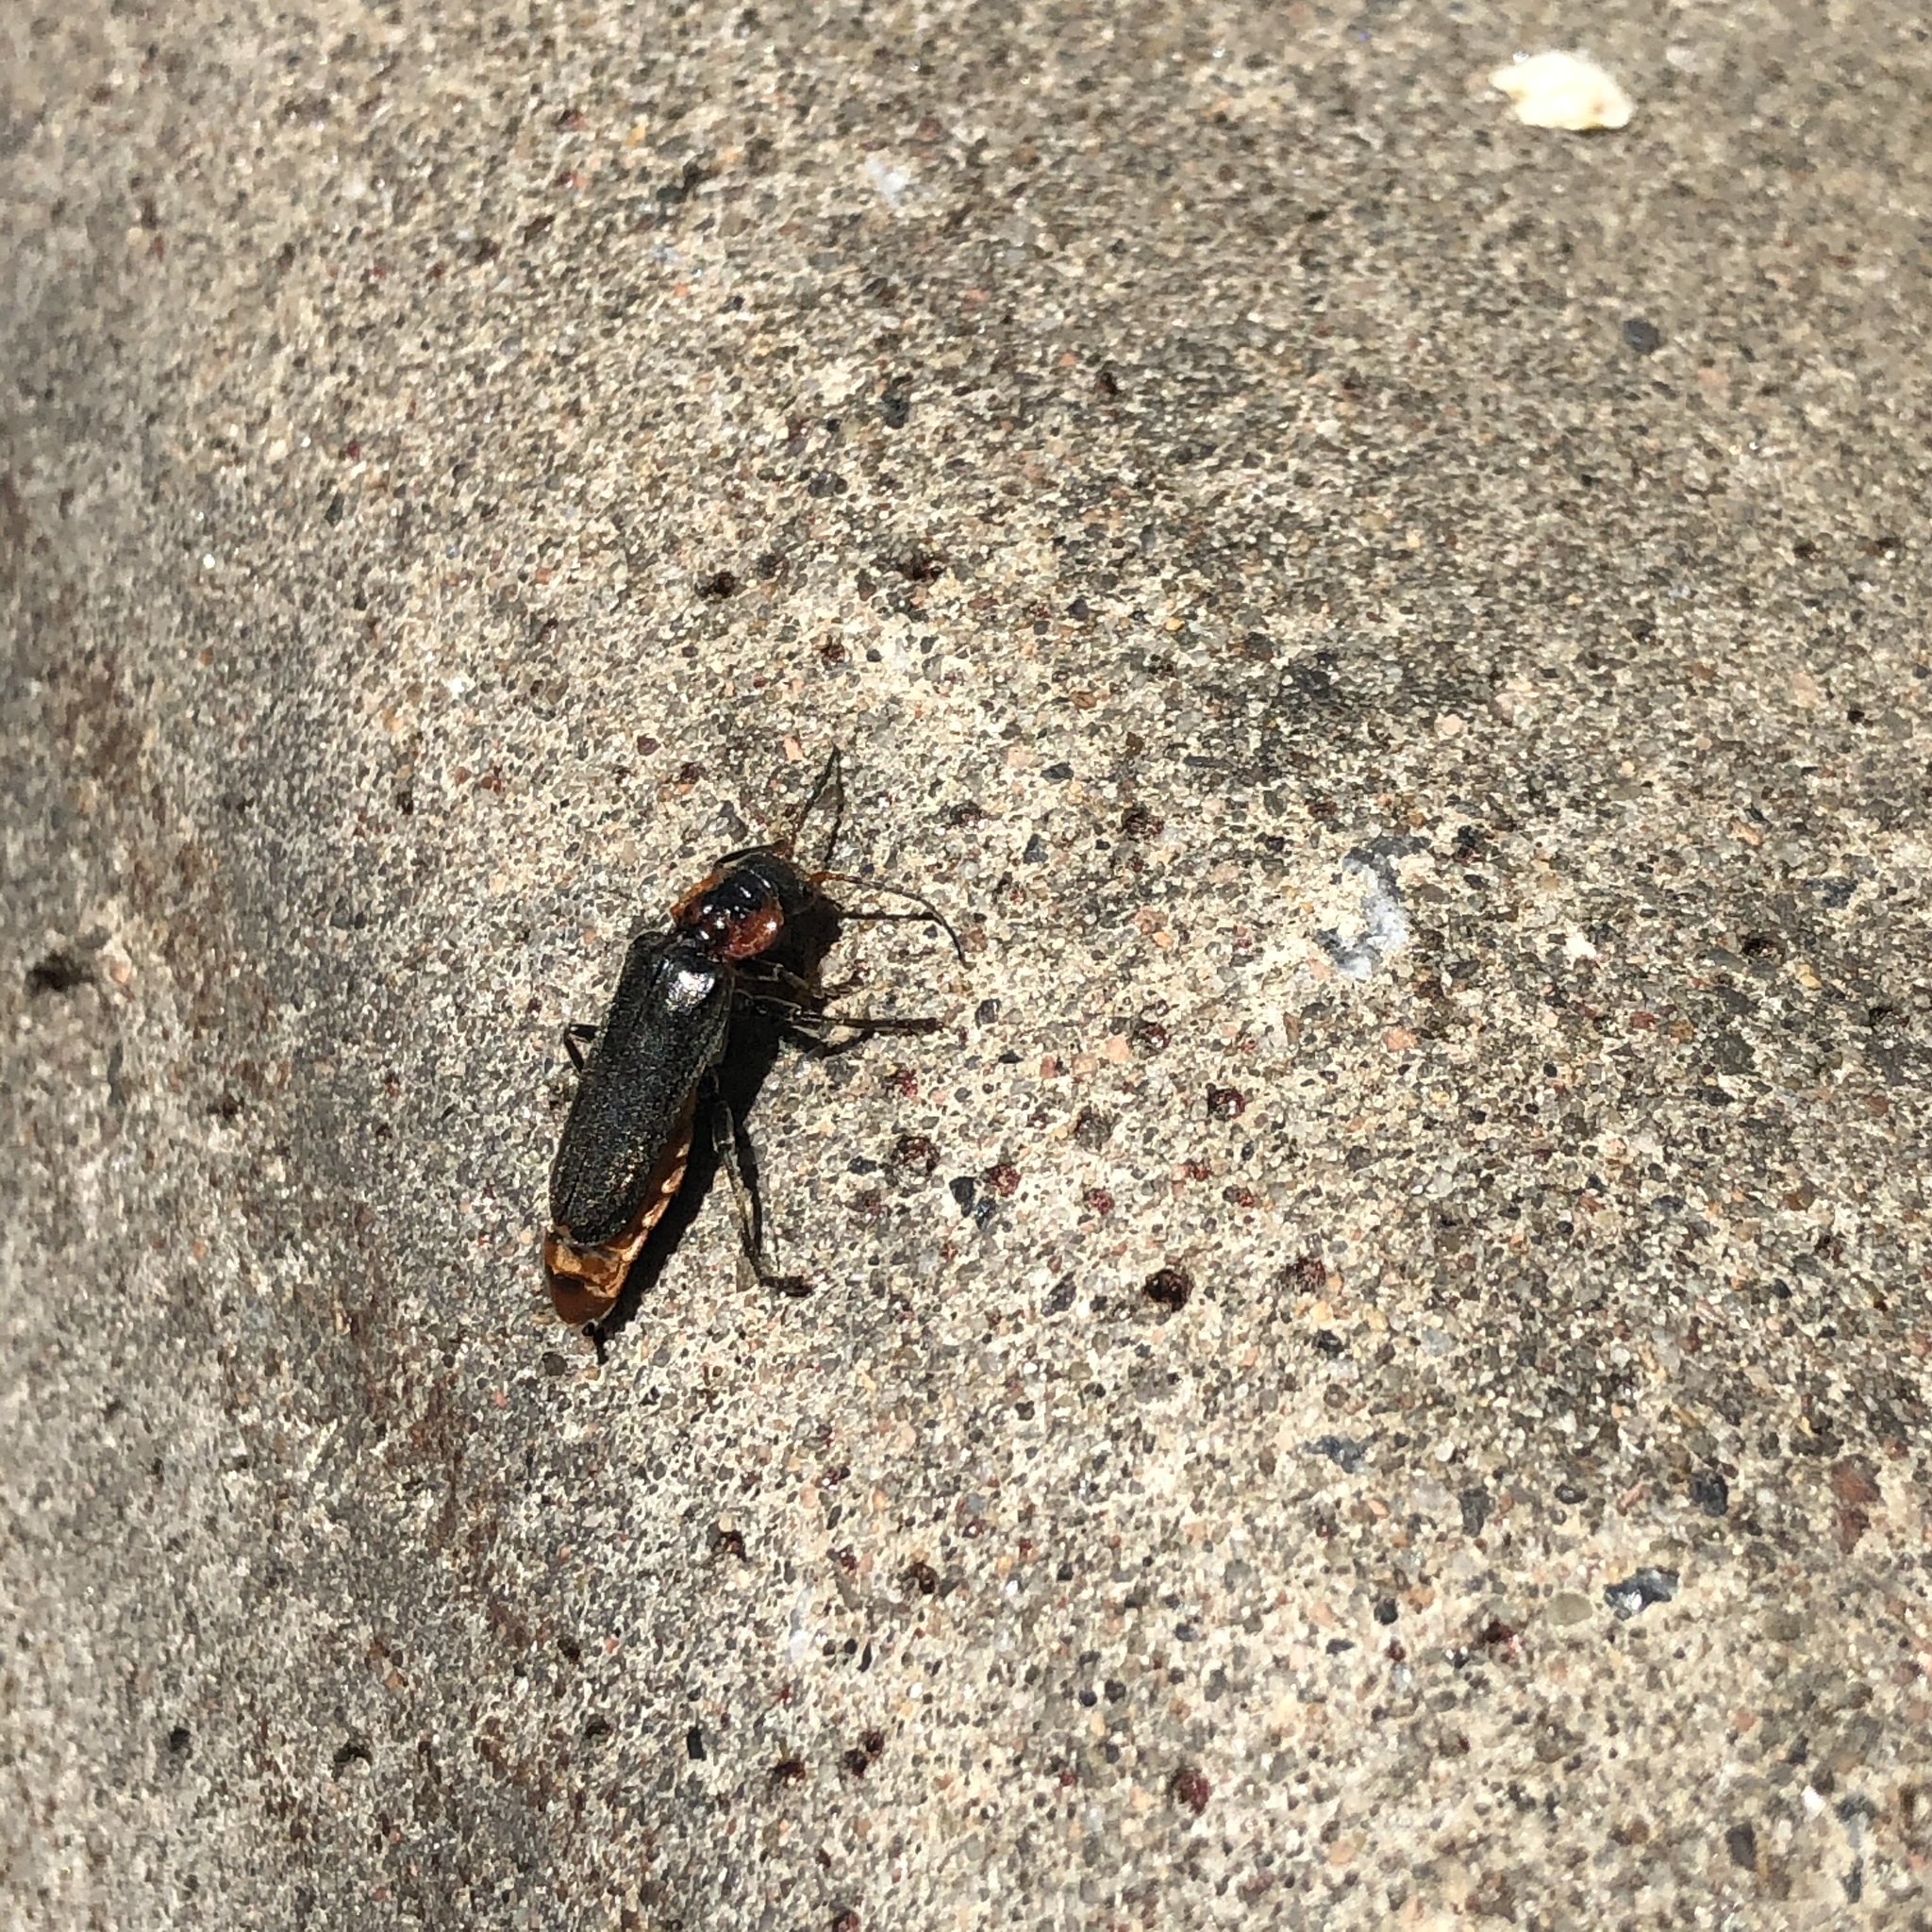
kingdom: Animalia
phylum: Arthropoda
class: Insecta
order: Coleoptera
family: Cantharidae
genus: Cantharis
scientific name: Cantharis fusca
